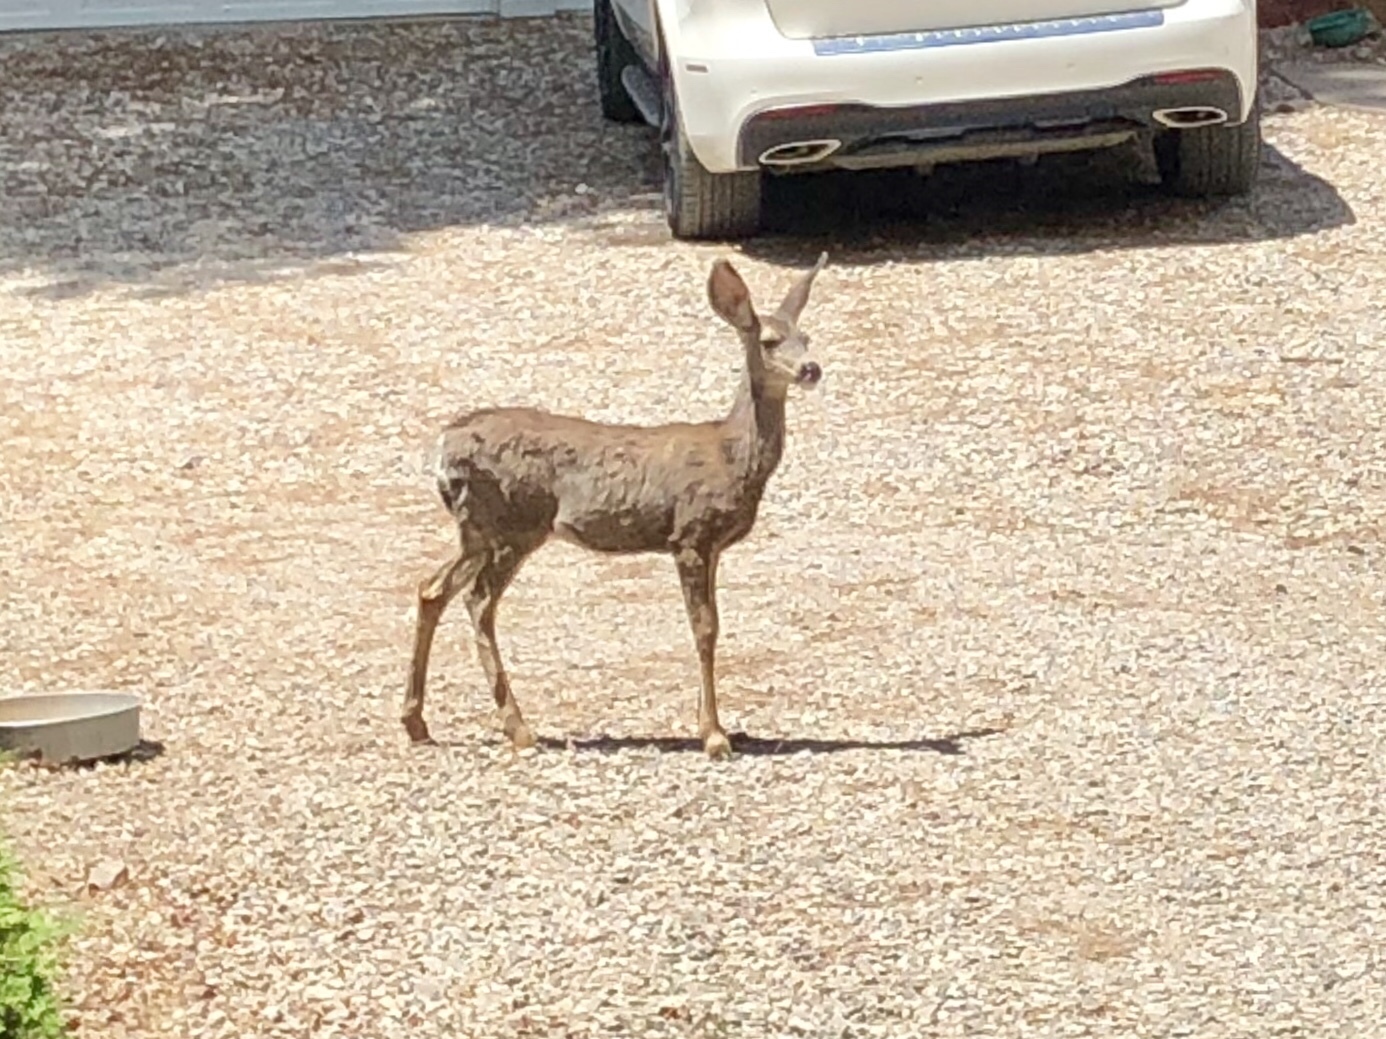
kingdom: Animalia
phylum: Chordata
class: Mammalia
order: Artiodactyla
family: Cervidae
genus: Odocoileus
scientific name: Odocoileus hemionus
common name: Mule deer
